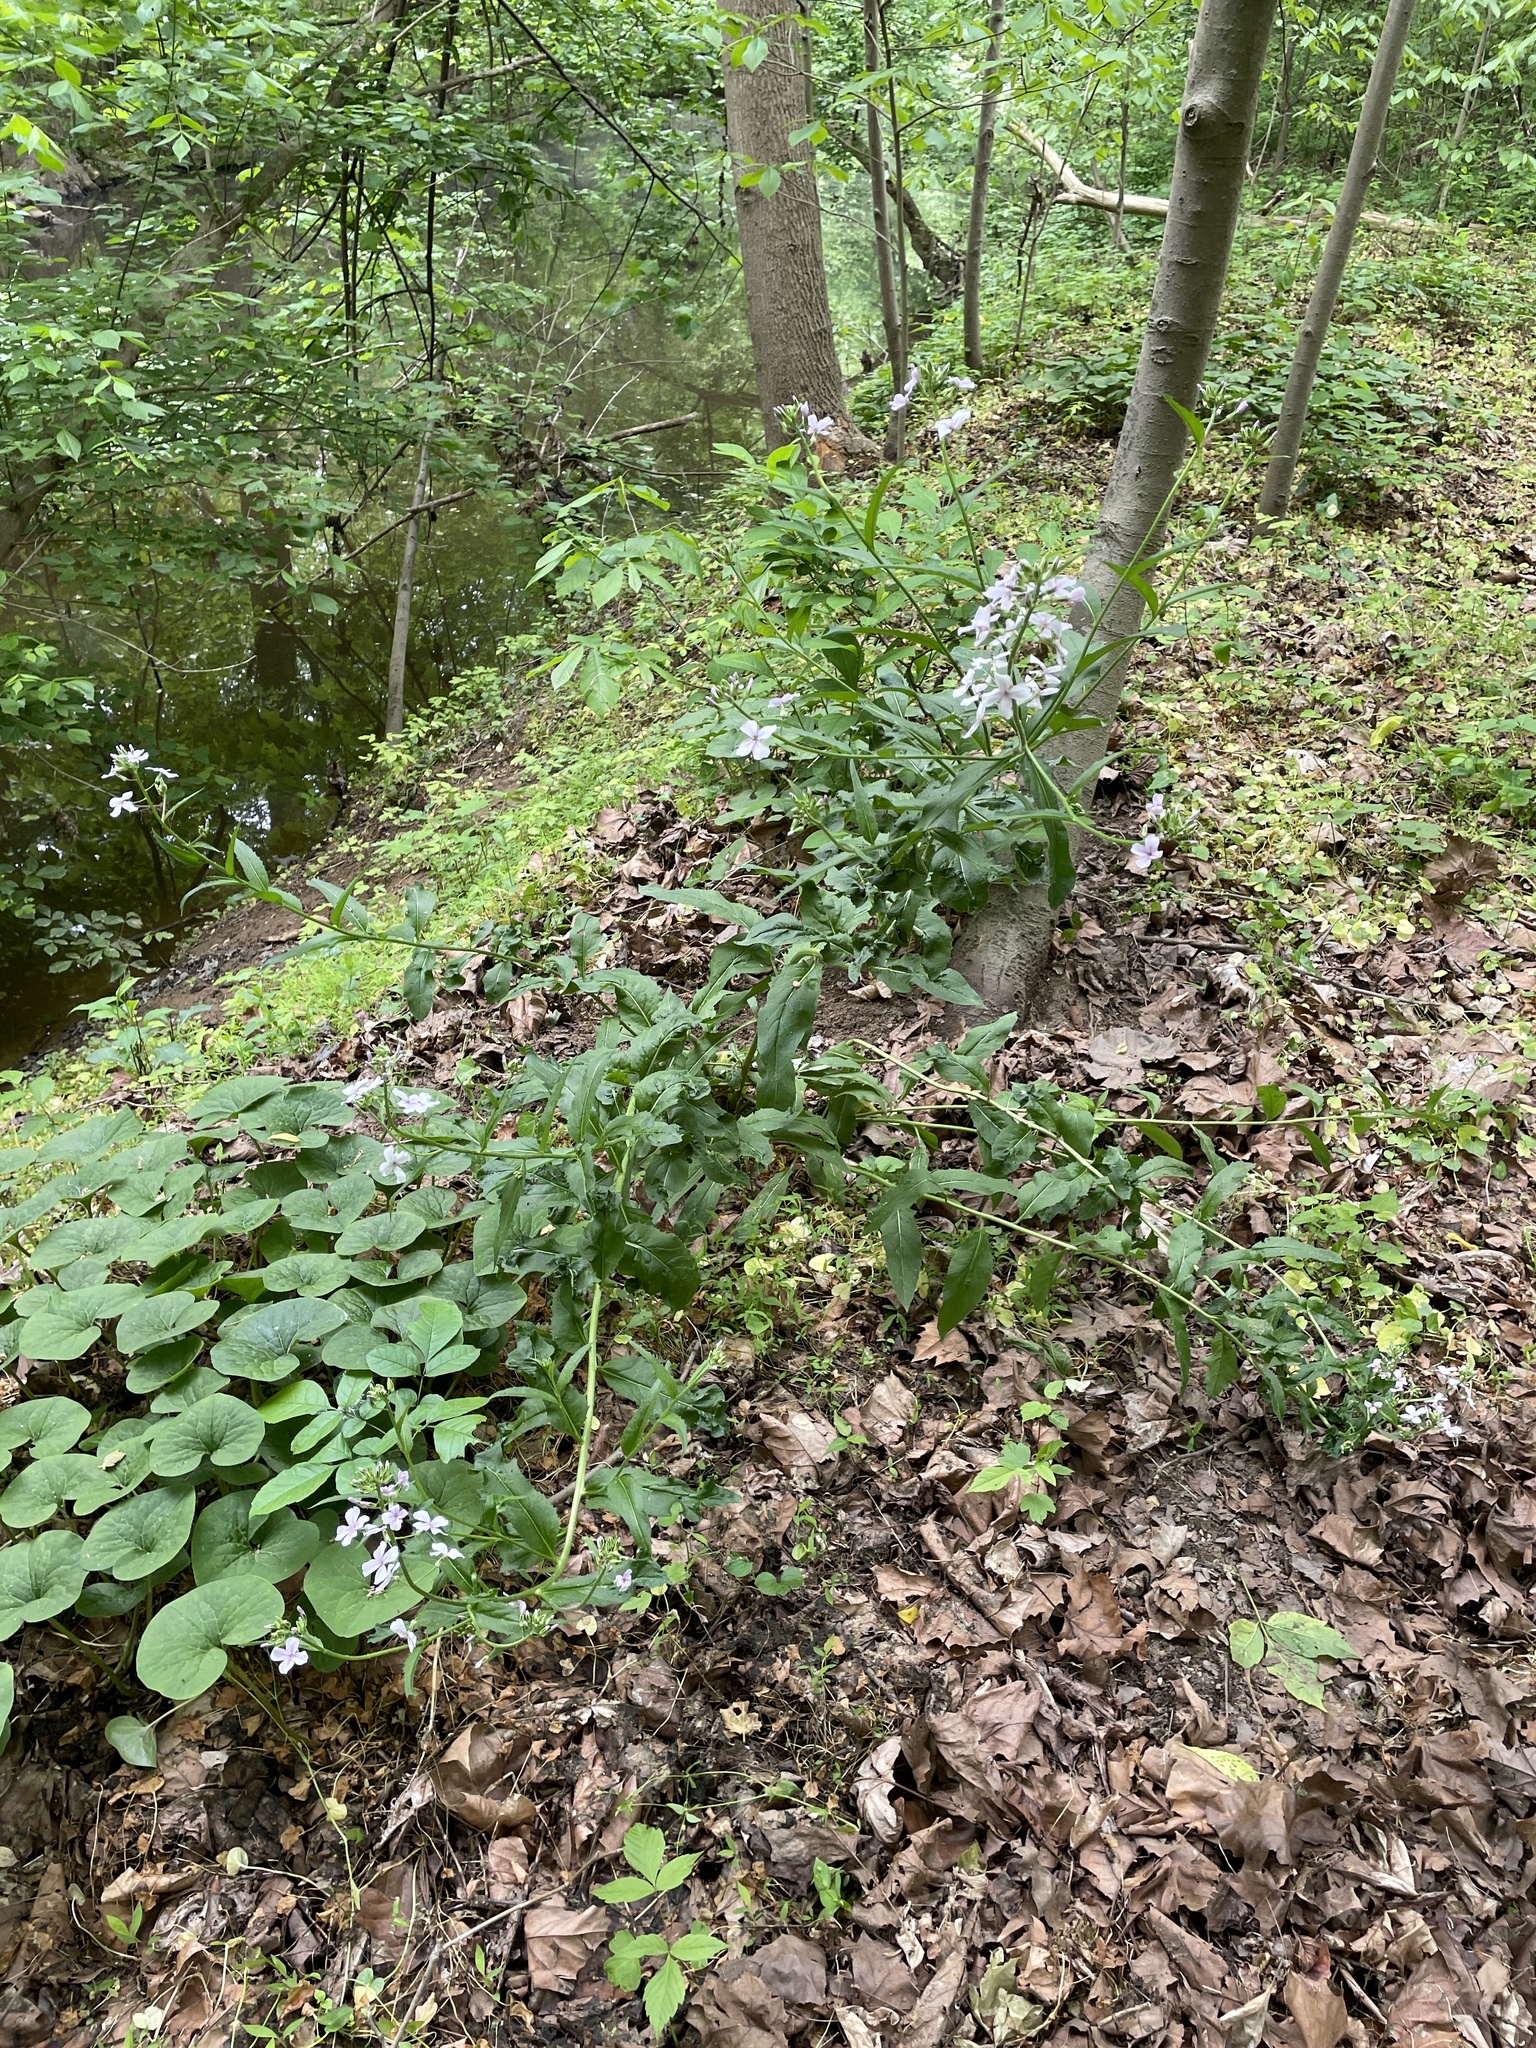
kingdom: Plantae
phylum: Tracheophyta
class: Magnoliopsida
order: Brassicales
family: Brassicaceae
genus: Hesperis
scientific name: Hesperis matronalis
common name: Dame's-violet
